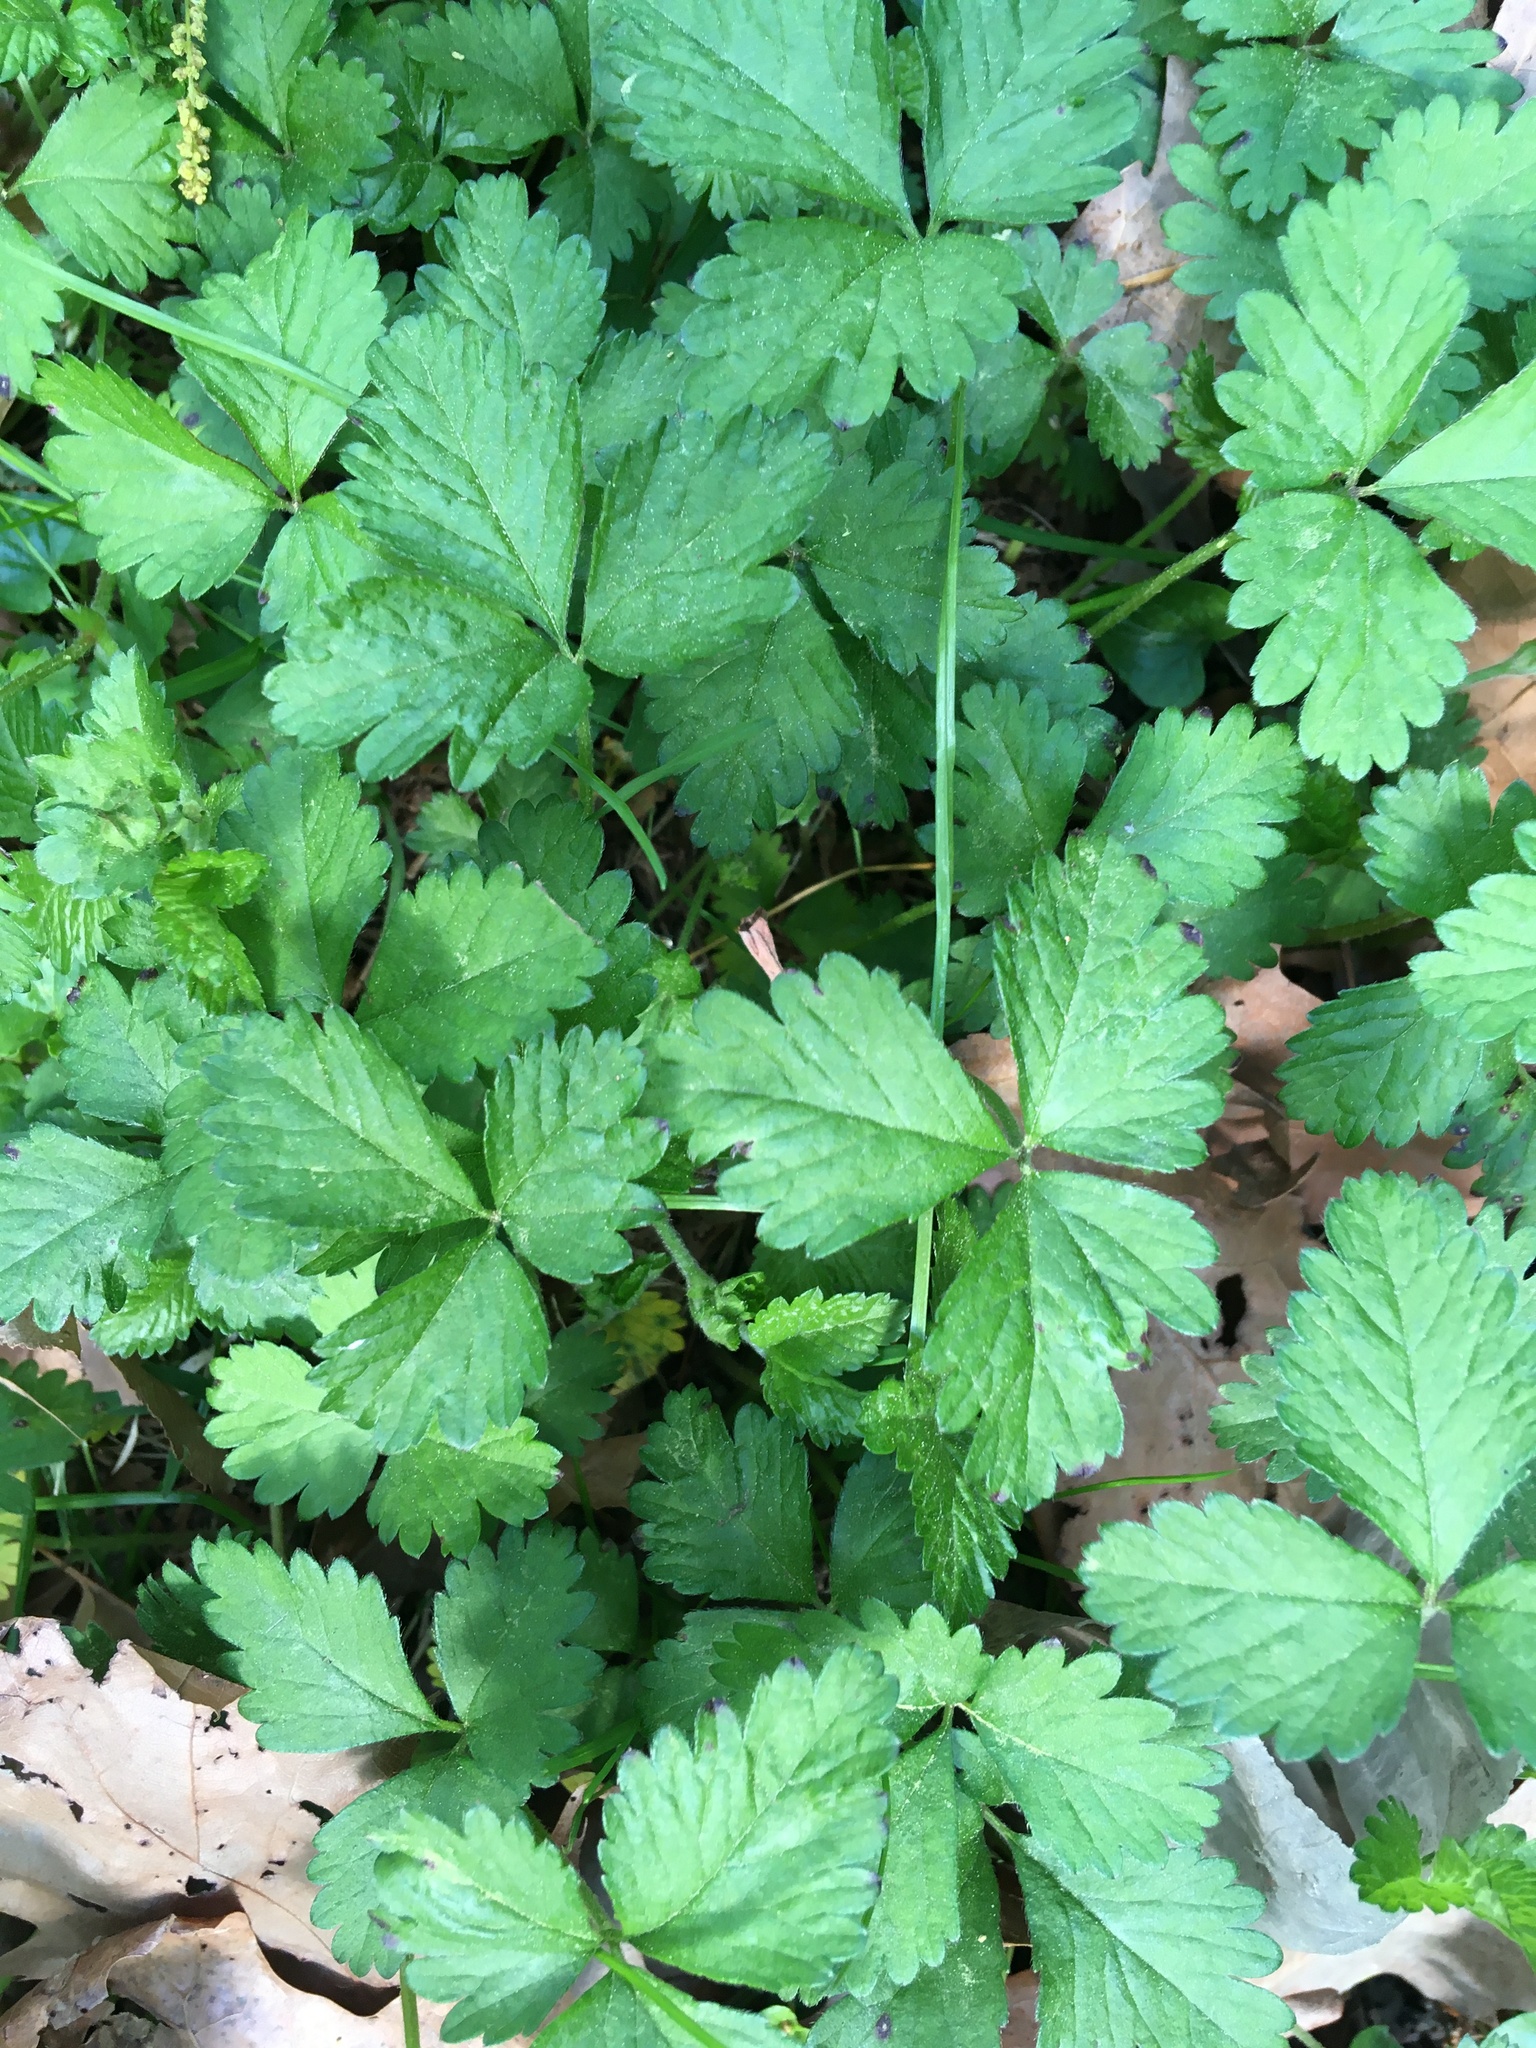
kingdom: Plantae
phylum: Tracheophyta
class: Magnoliopsida
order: Rosales
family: Rosaceae
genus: Potentilla
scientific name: Potentilla indica
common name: Yellow-flowered strawberry
